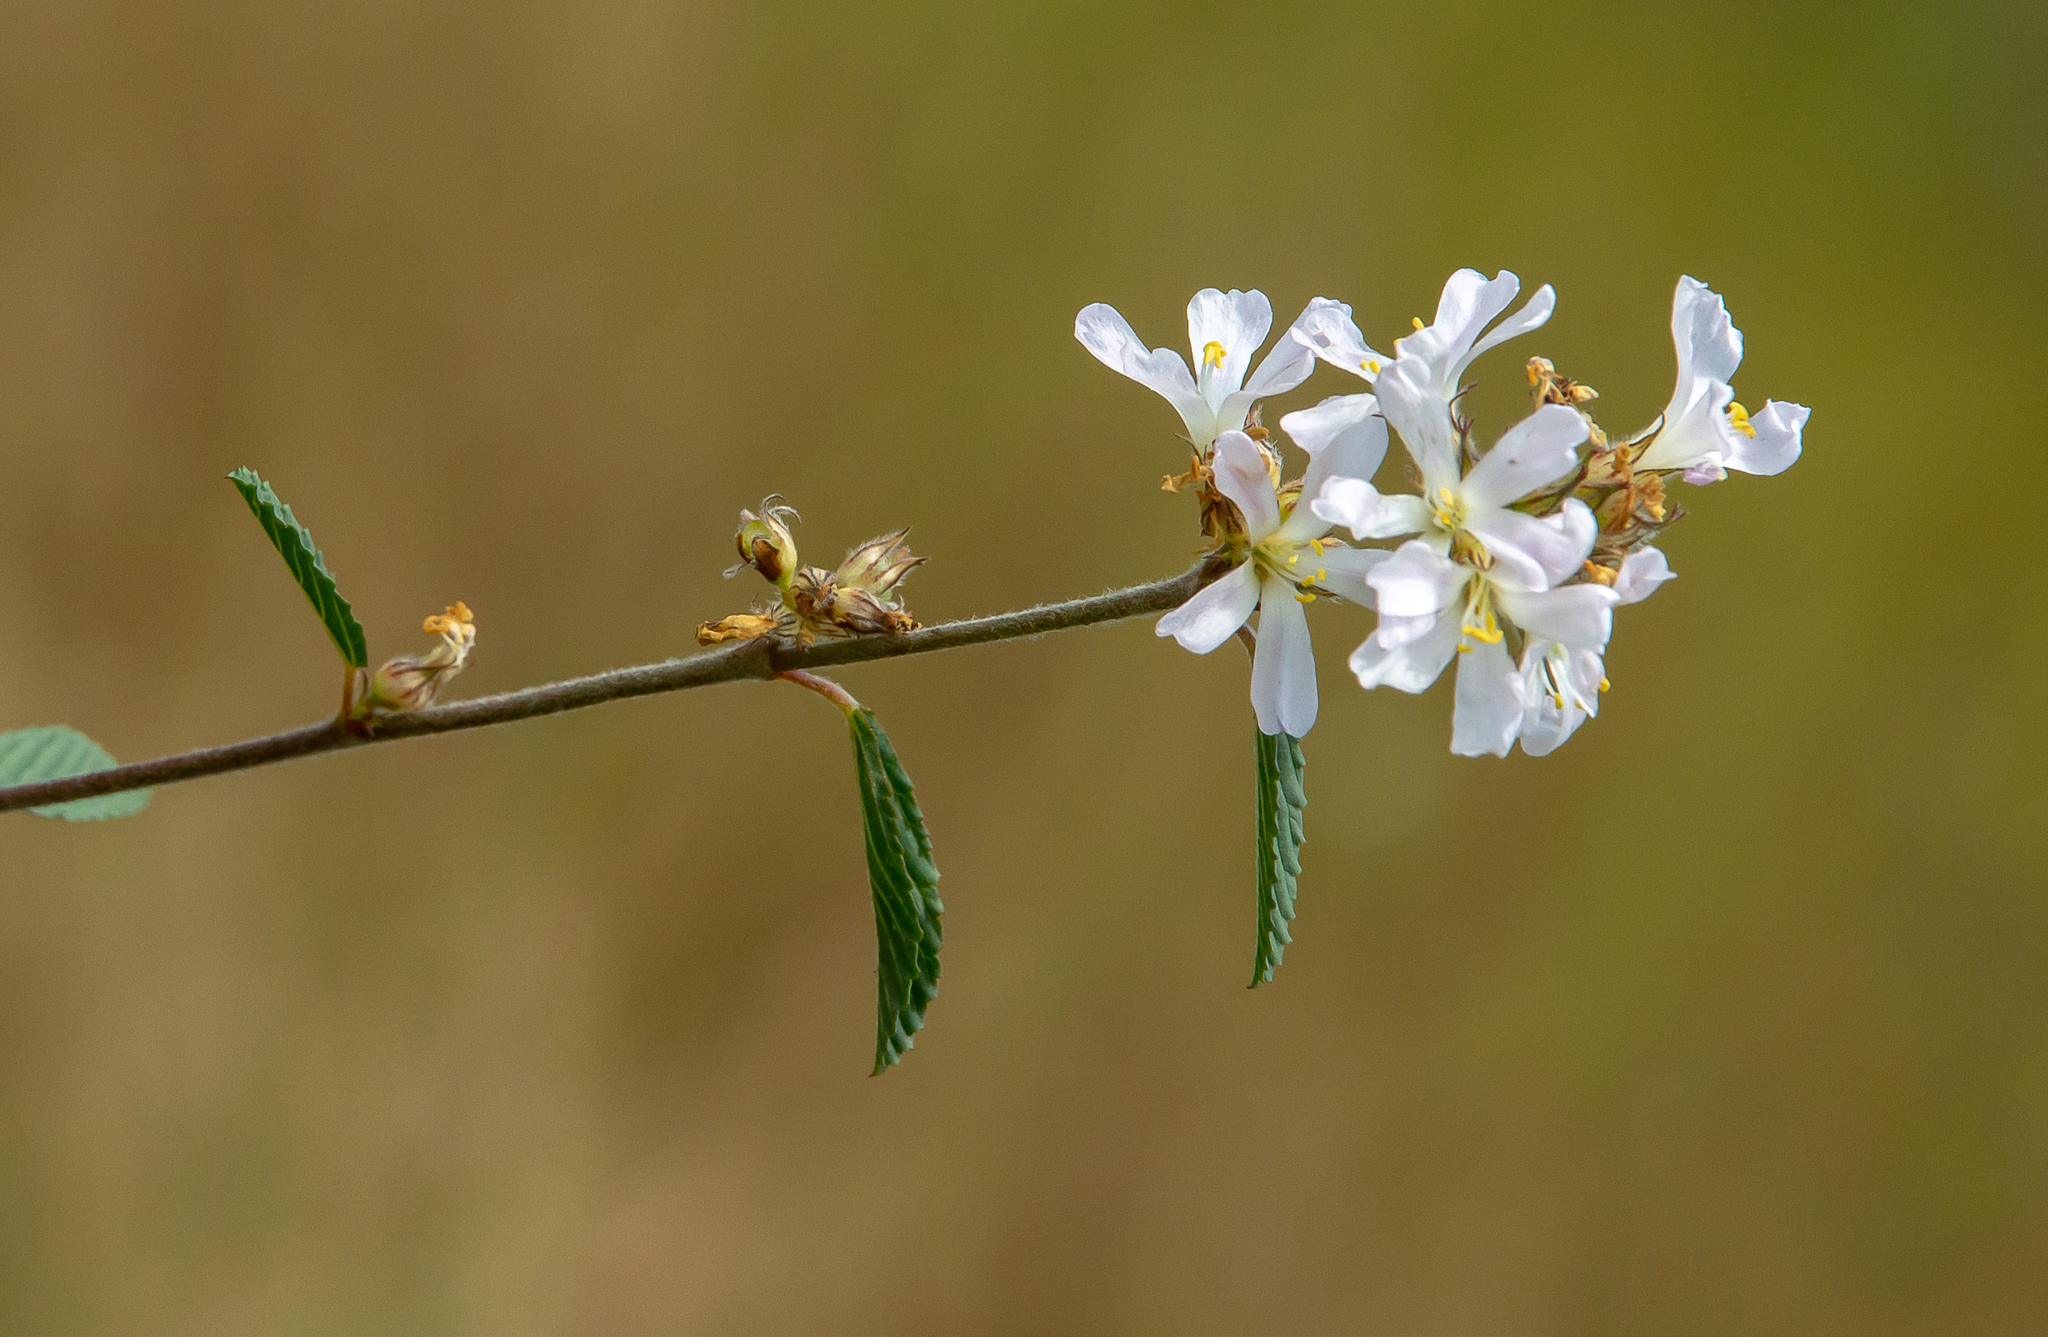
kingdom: Plantae
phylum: Tracheophyta
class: Magnoliopsida
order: Malvales
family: Malvaceae
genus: Melochia
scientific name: Melochia parvifolia
